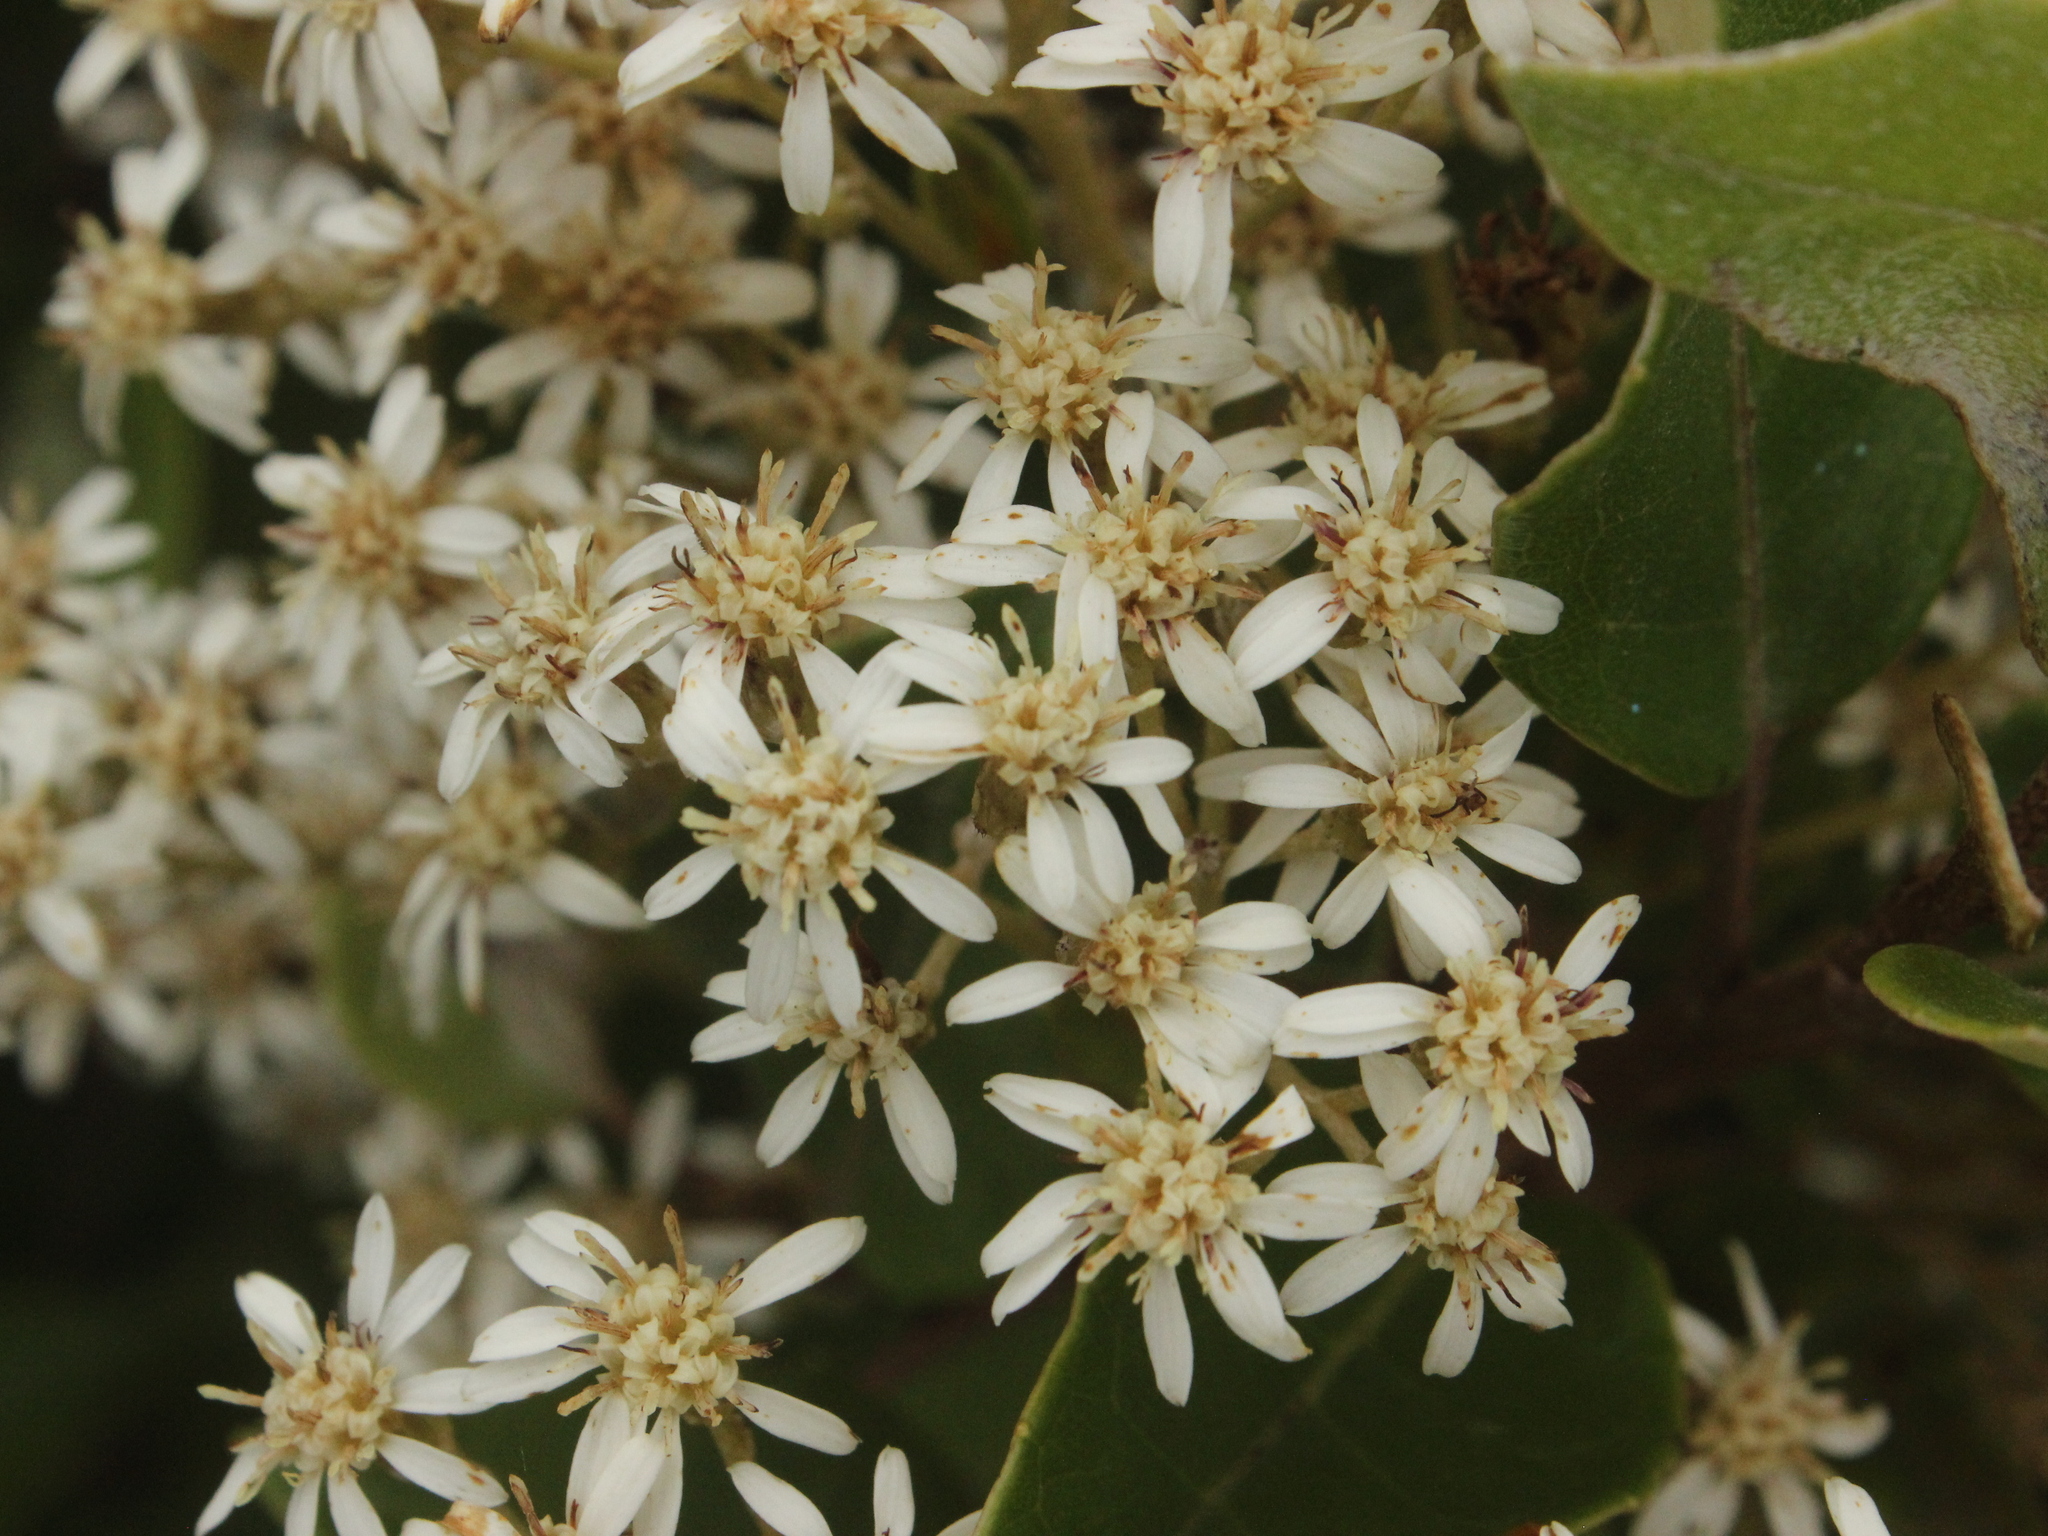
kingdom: Plantae
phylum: Tracheophyta
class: Magnoliopsida
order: Asterales
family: Asteraceae
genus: Olearia
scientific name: Olearia arborescens
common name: Glossy tree daisy
